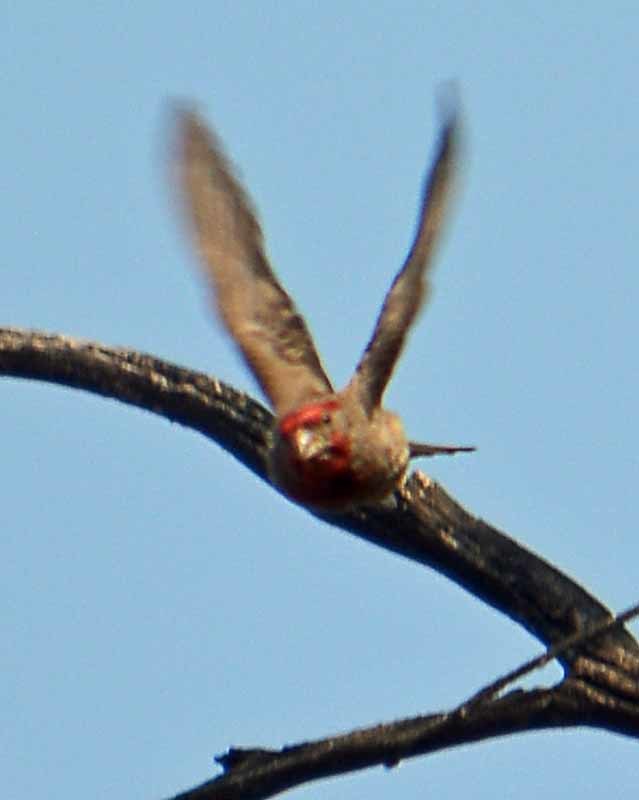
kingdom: Animalia
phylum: Chordata
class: Aves
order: Passeriformes
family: Fringillidae
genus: Haemorhous
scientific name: Haemorhous mexicanus
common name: House finch
